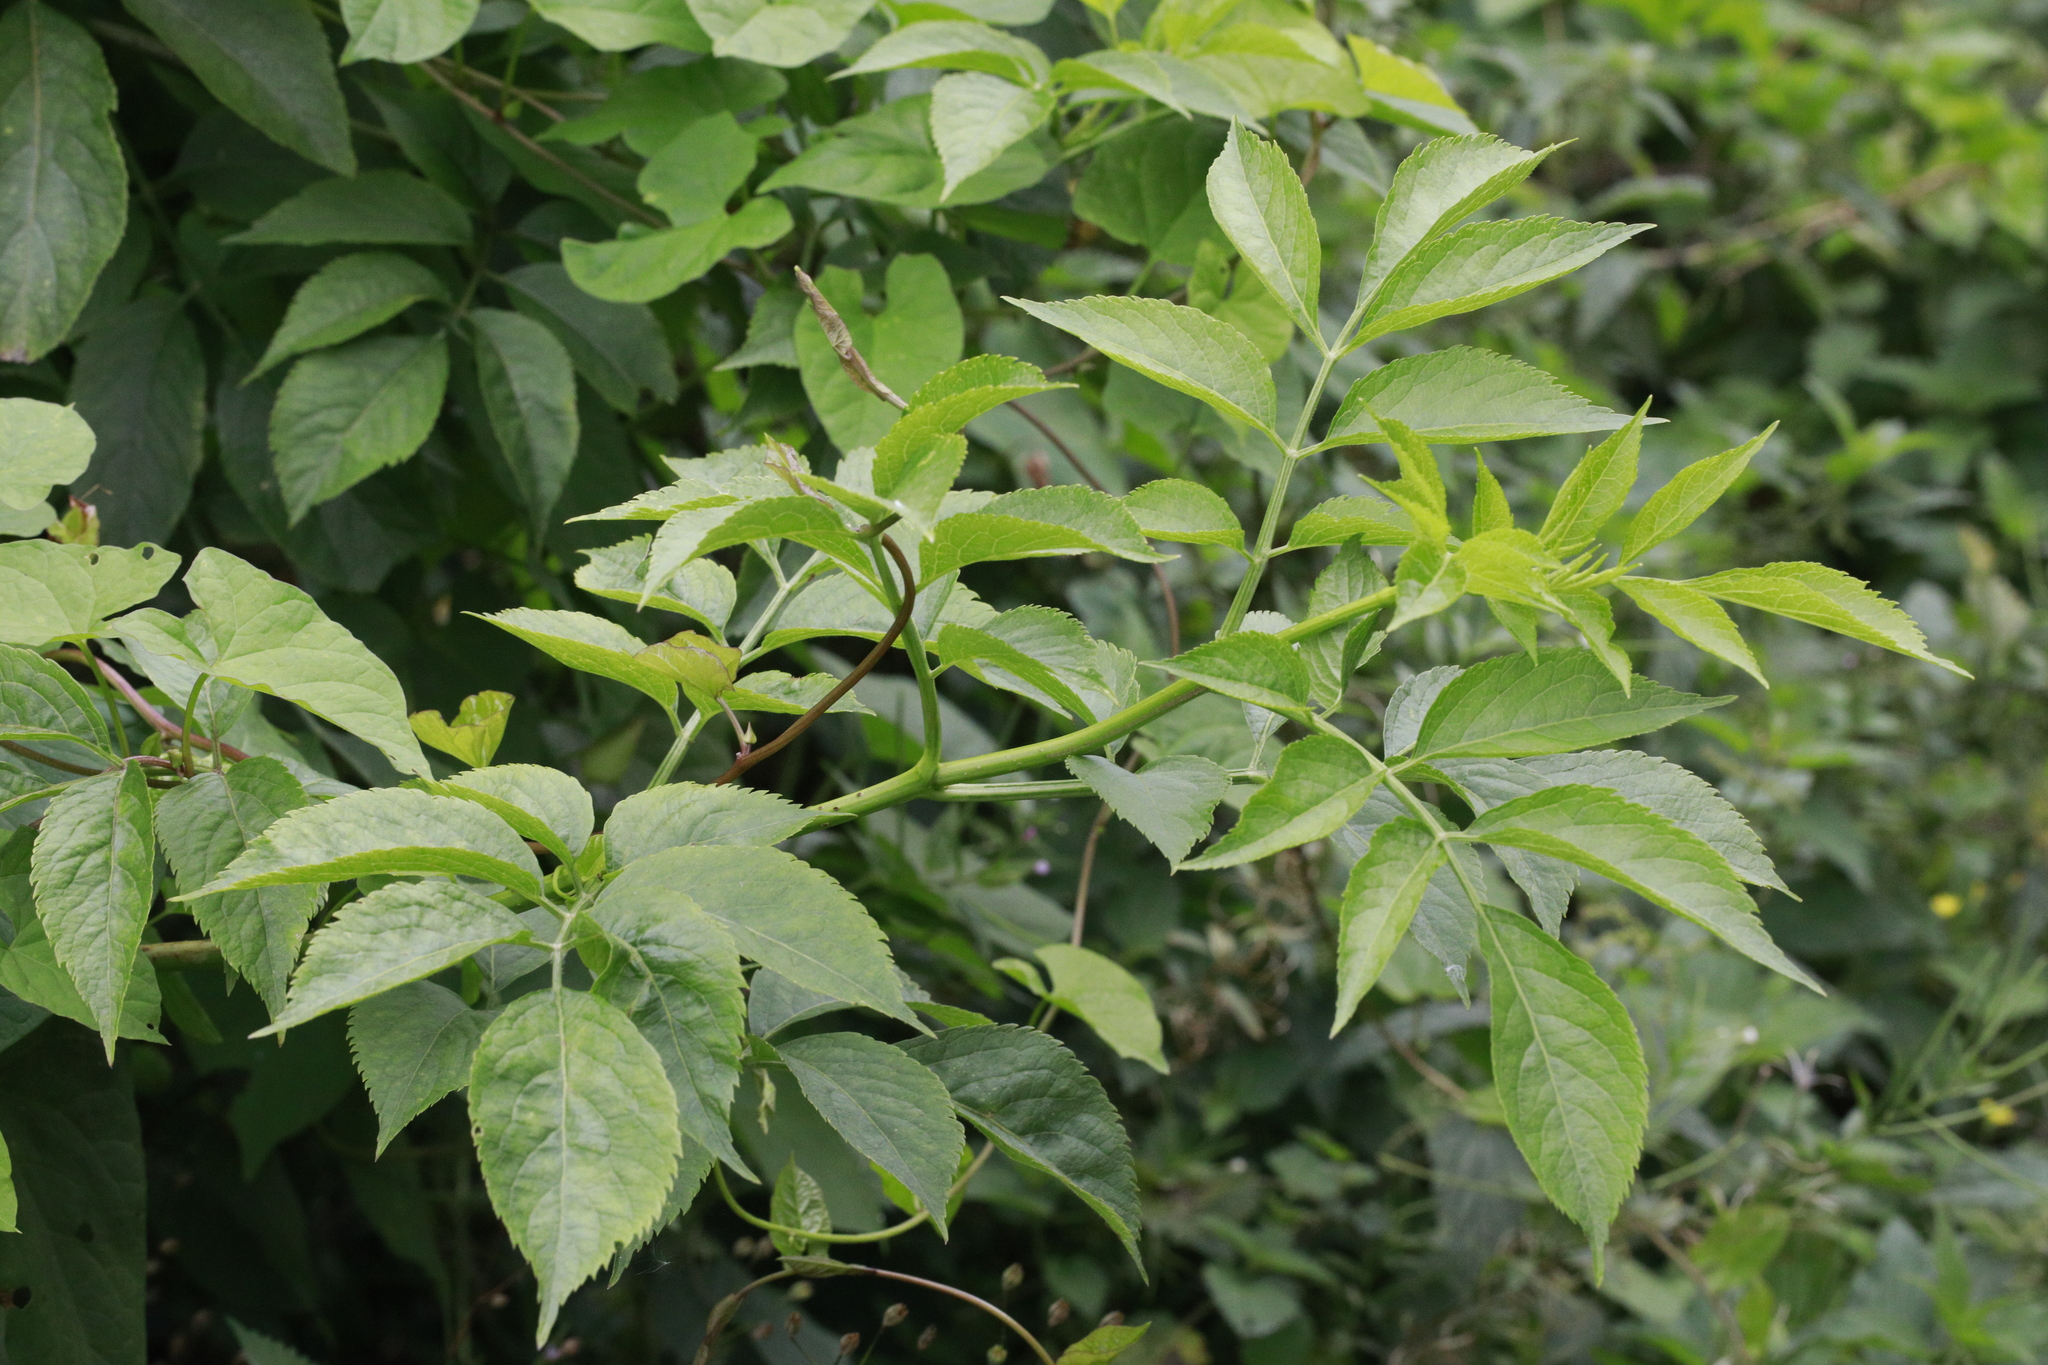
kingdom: Plantae
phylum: Tracheophyta
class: Magnoliopsida
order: Dipsacales
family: Viburnaceae
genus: Sambucus
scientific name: Sambucus nigra
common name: Elder
